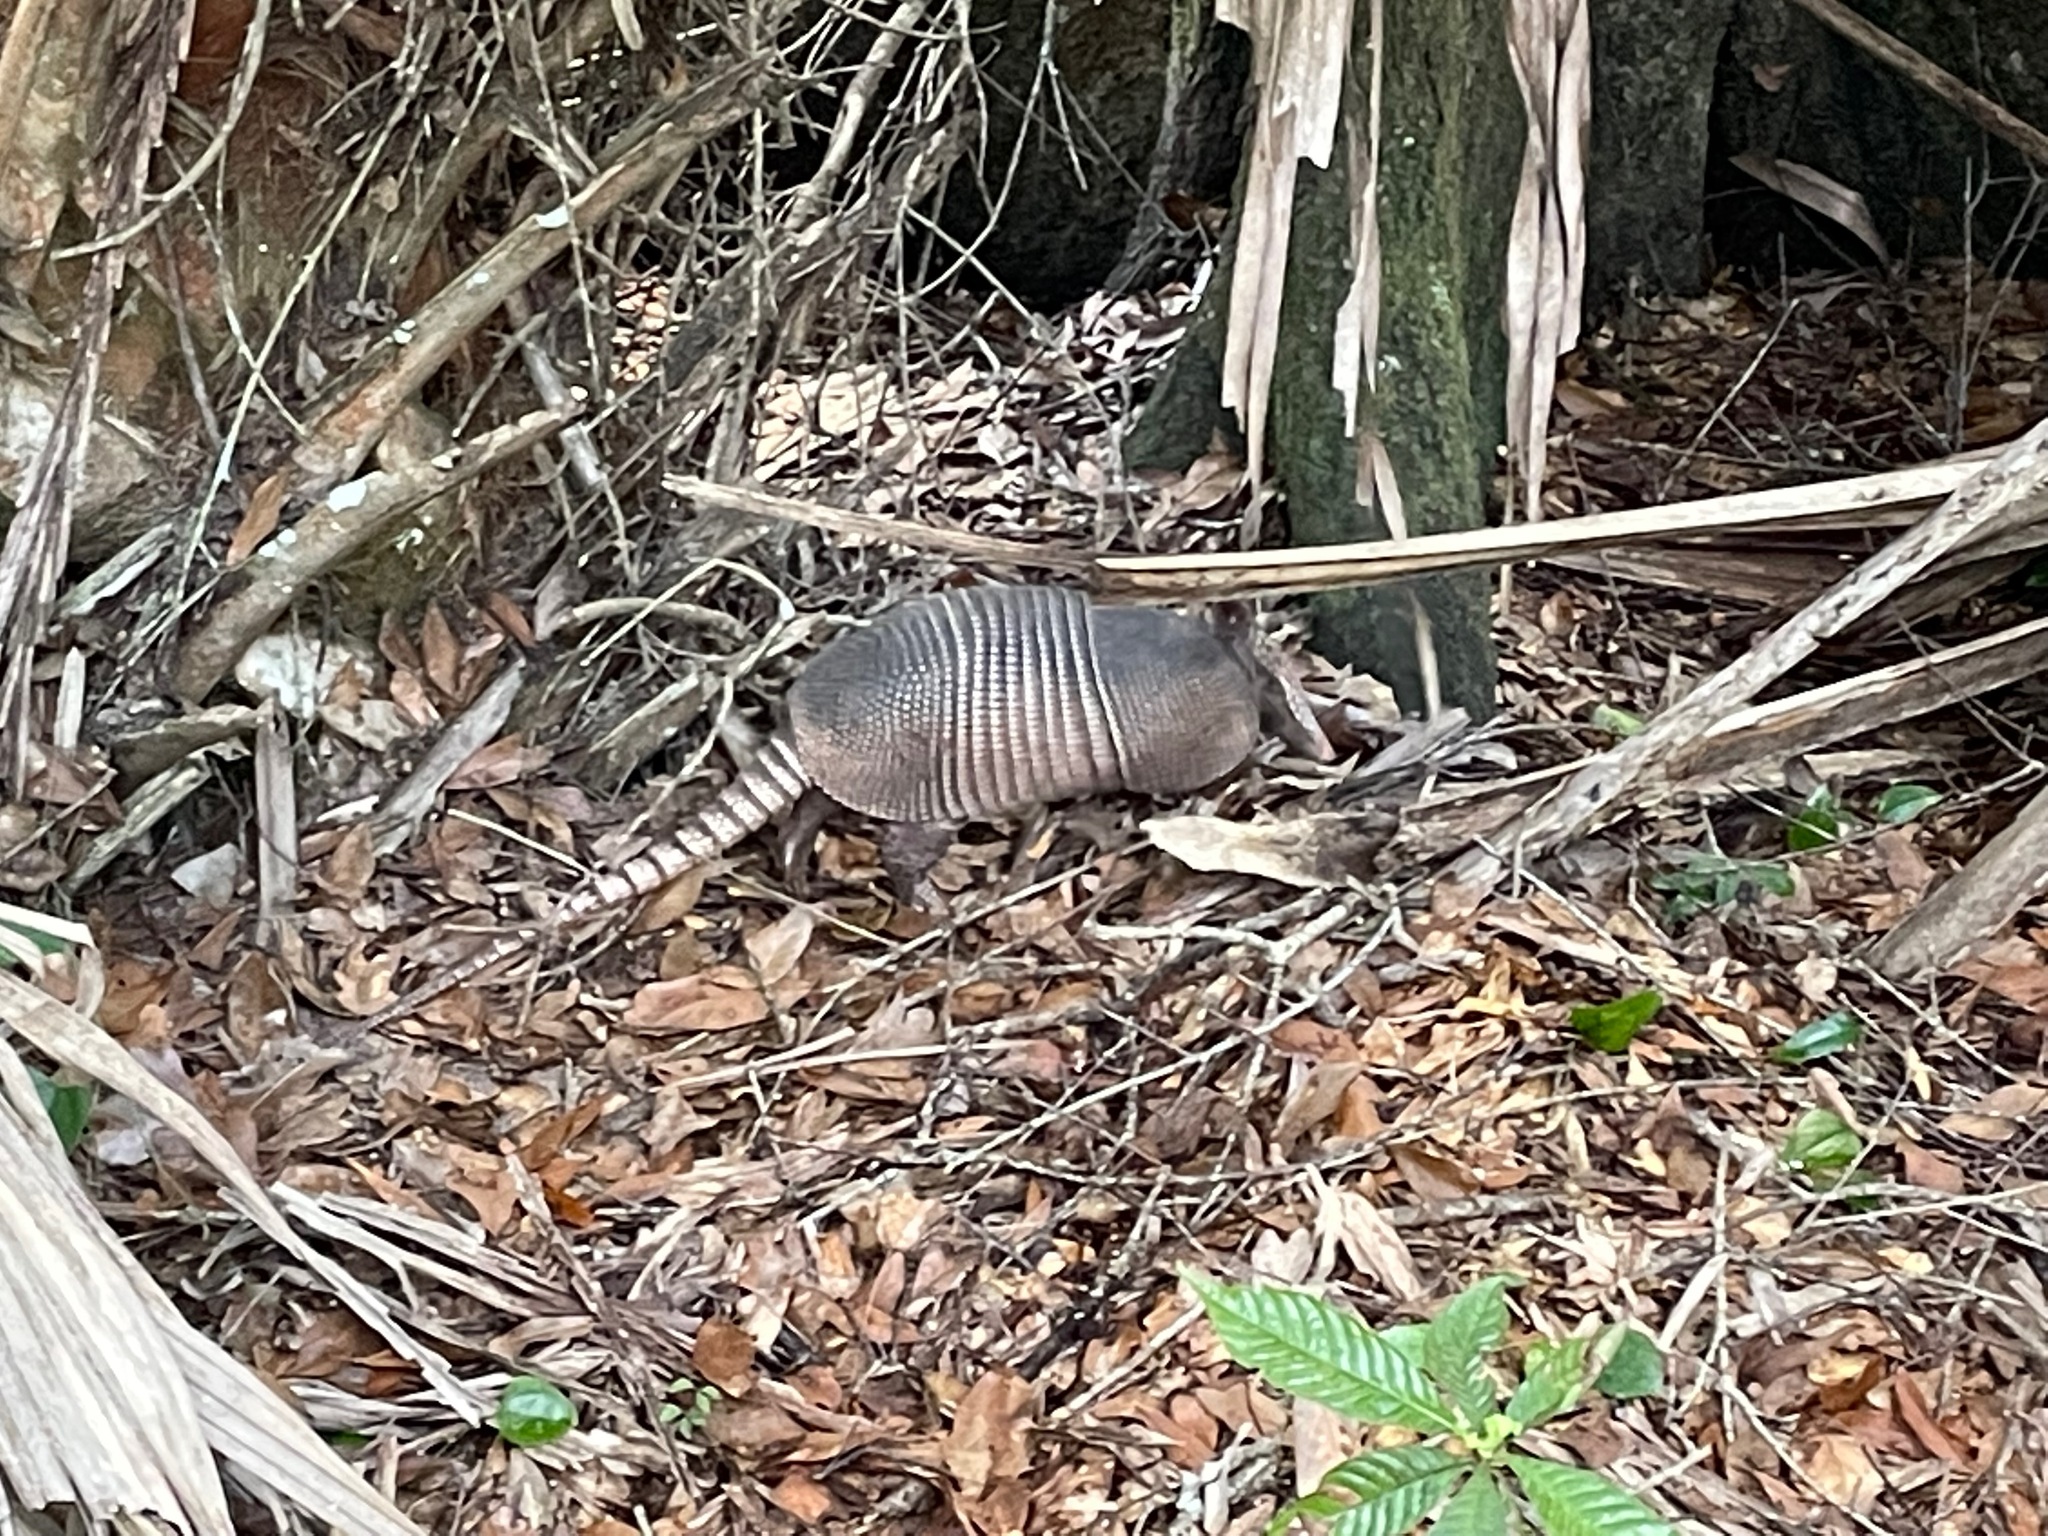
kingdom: Animalia
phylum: Chordata
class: Mammalia
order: Cingulata
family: Dasypodidae
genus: Dasypus
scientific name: Dasypus novemcinctus
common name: Nine-banded armadillo
